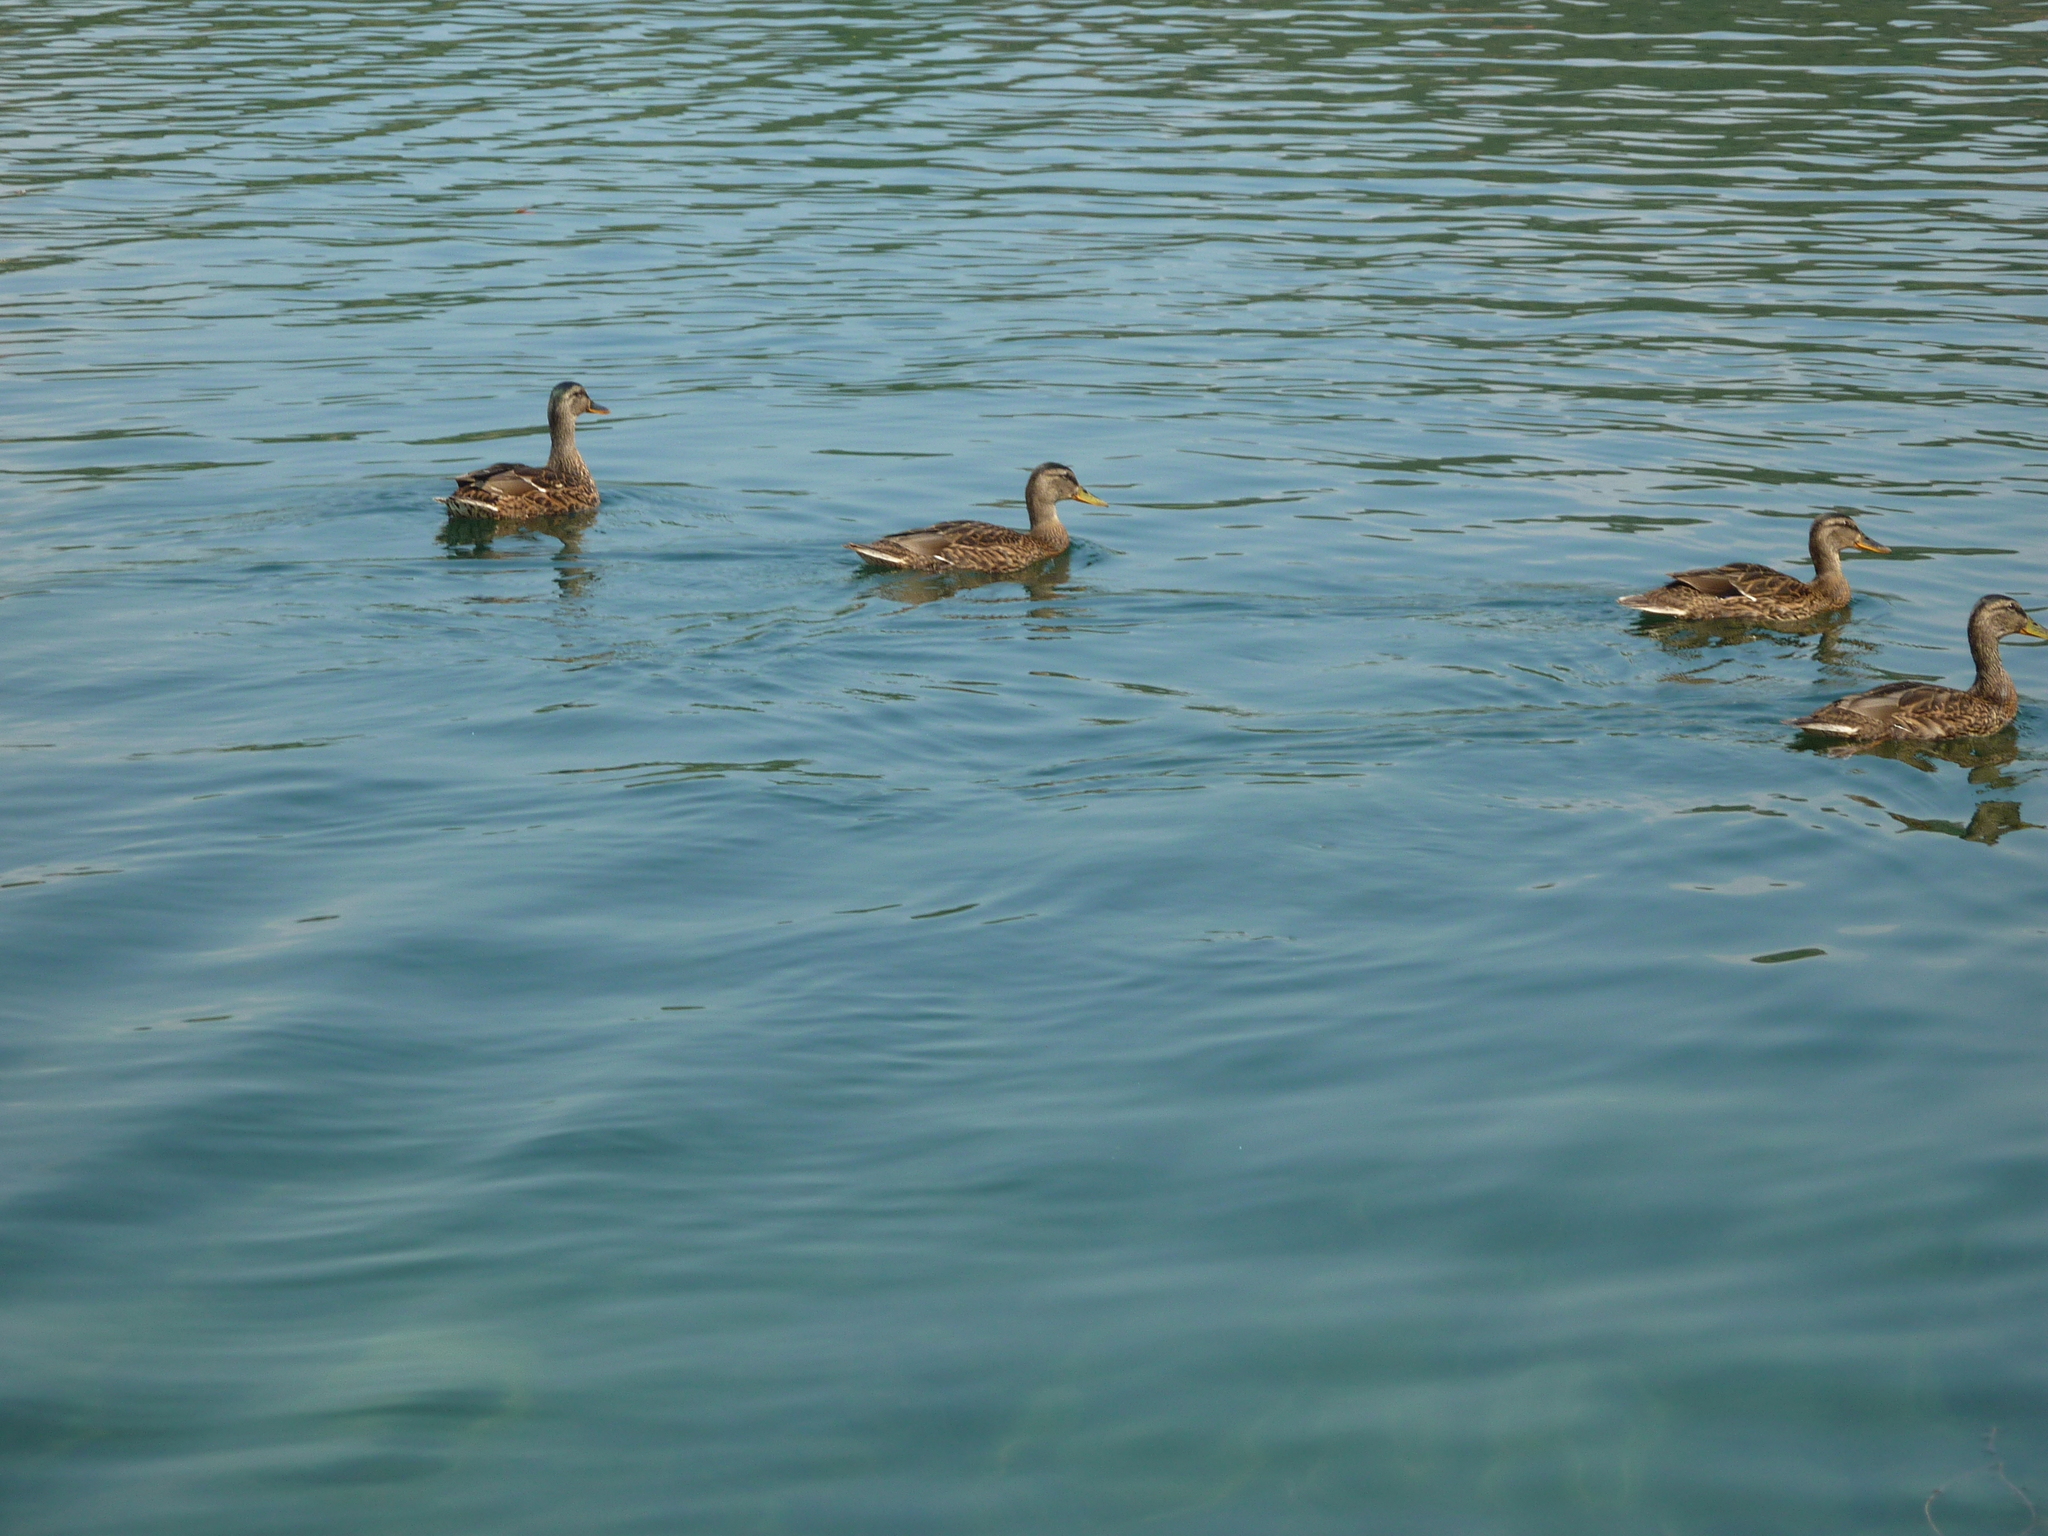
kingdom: Animalia
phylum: Chordata
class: Aves
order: Anseriformes
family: Anatidae
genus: Anas
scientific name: Anas platyrhynchos
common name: Mallard
